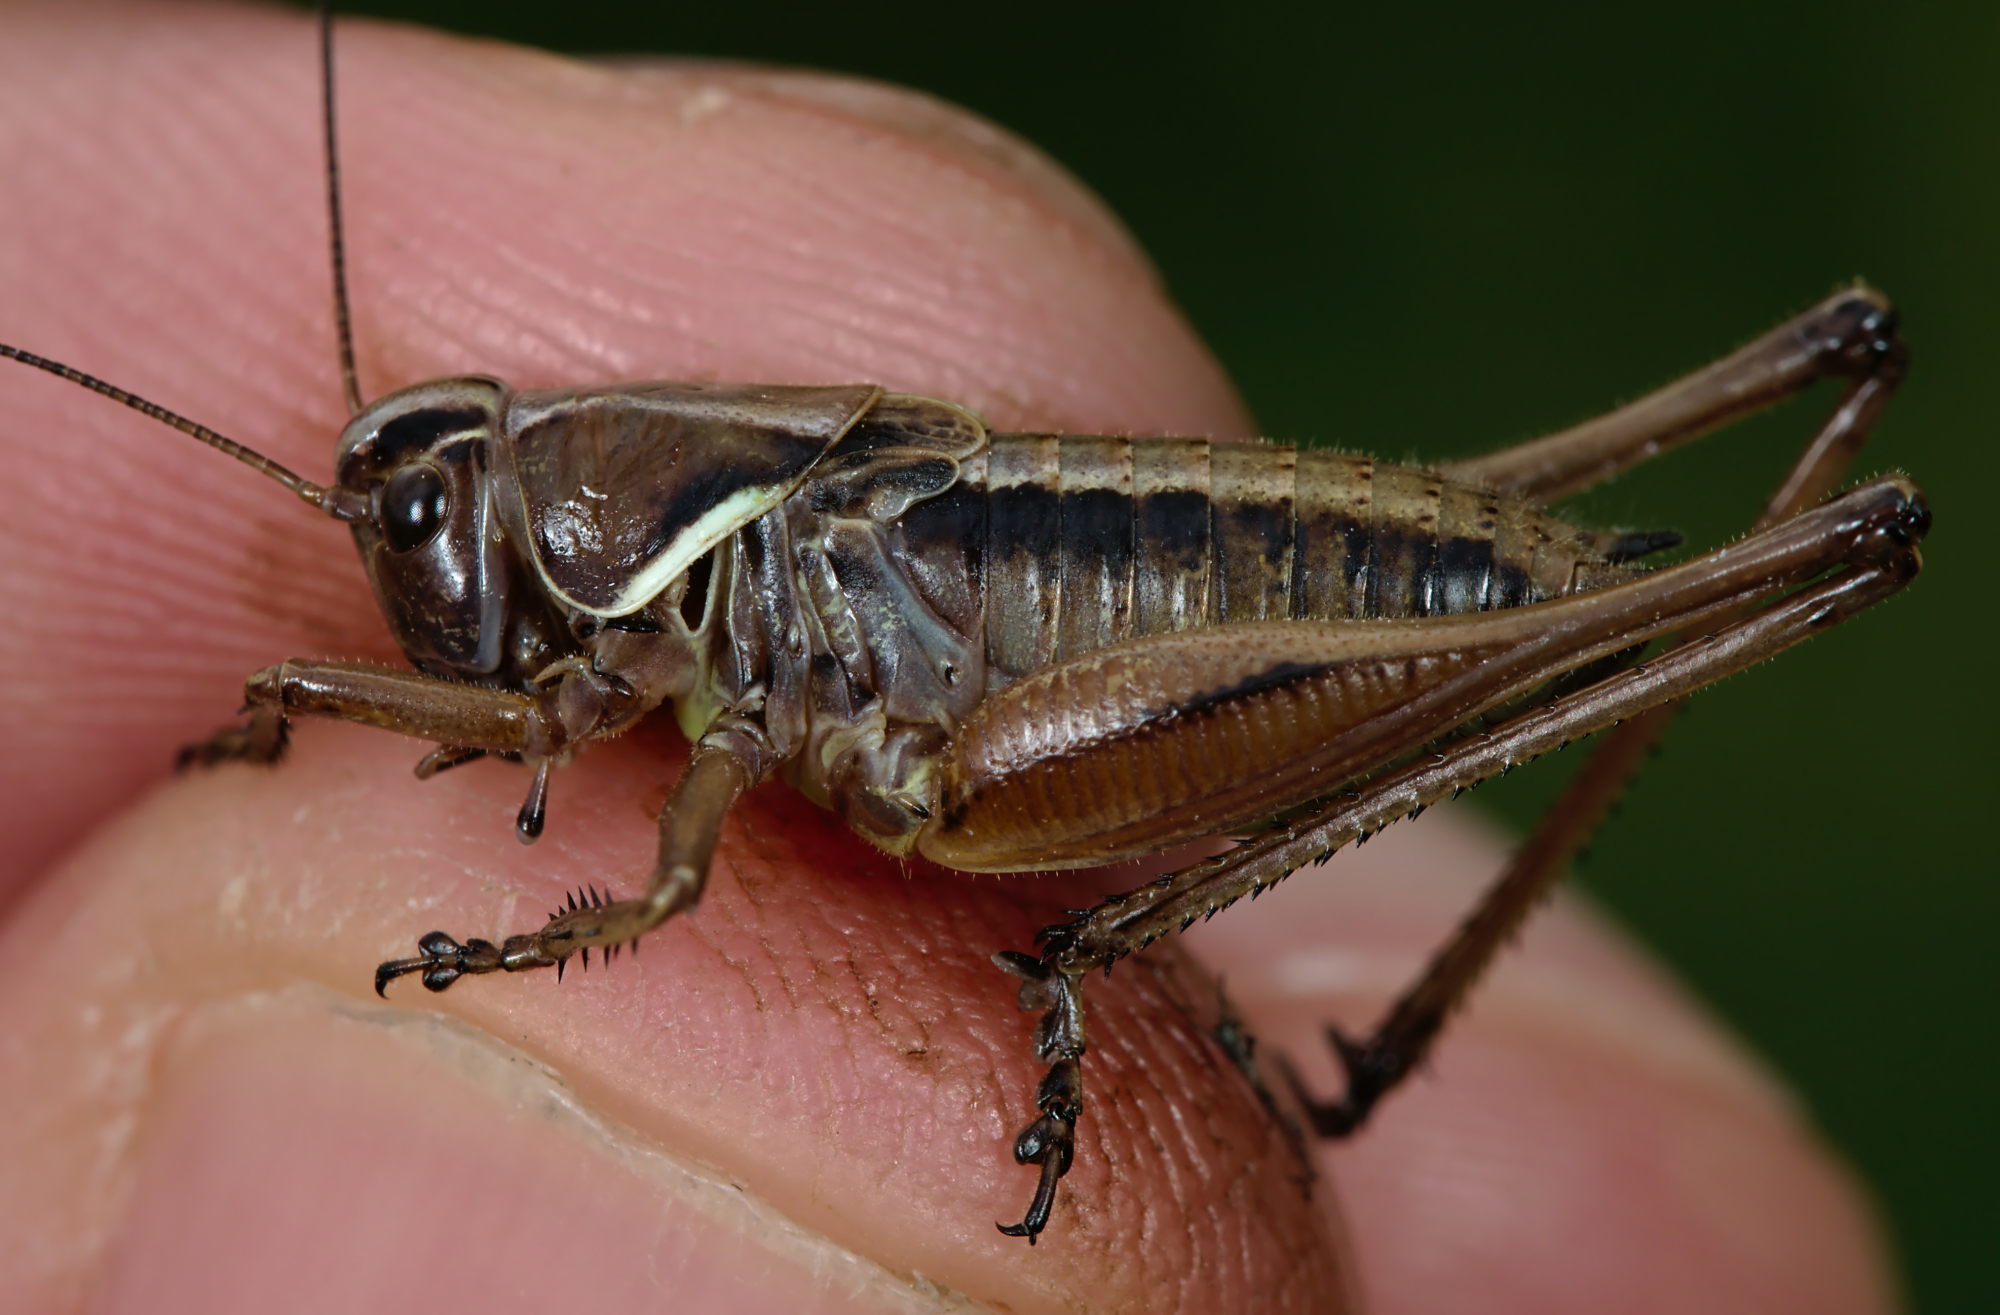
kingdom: Animalia
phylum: Arthropoda
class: Insecta
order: Orthoptera
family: Tettigoniidae
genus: Metrioptera
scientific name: Metrioptera saussuriana
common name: Purple meadow bush-cricket
